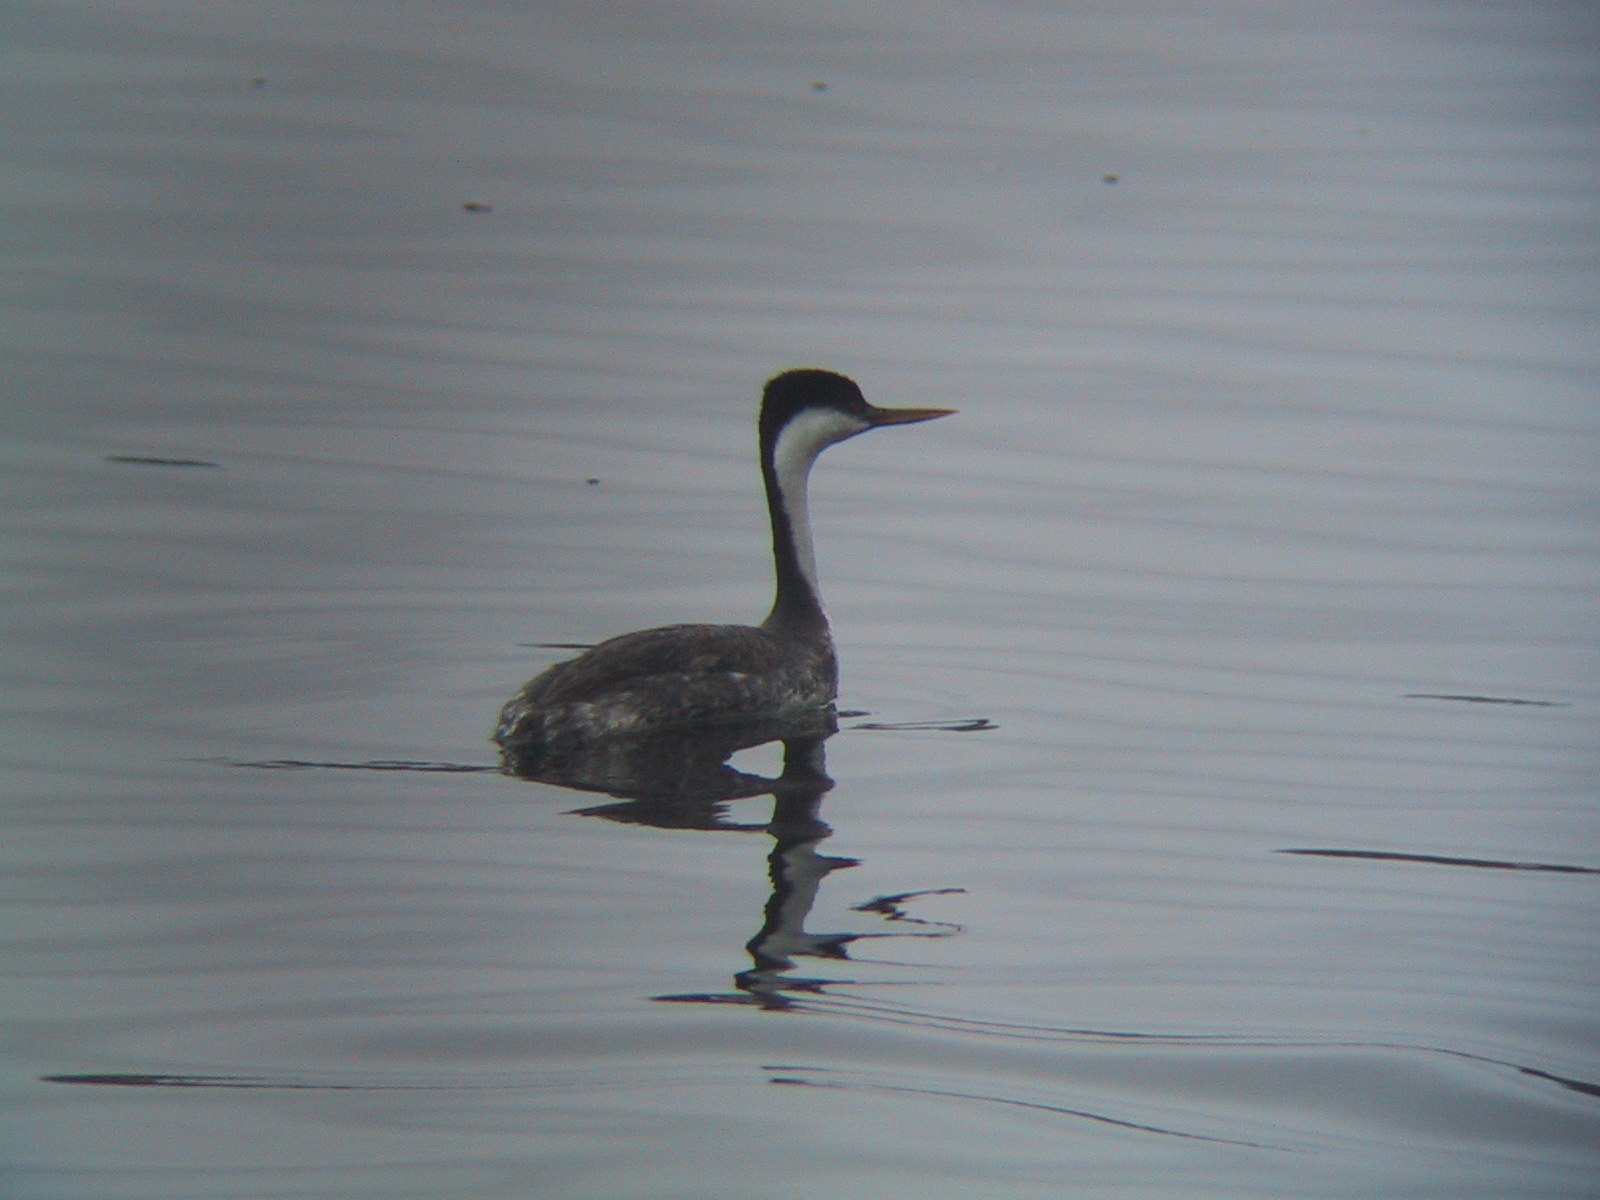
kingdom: Animalia
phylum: Chordata
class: Aves
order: Podicipediformes
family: Podicipedidae
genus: Aechmophorus
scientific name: Aechmophorus occidentalis
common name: Western grebe
